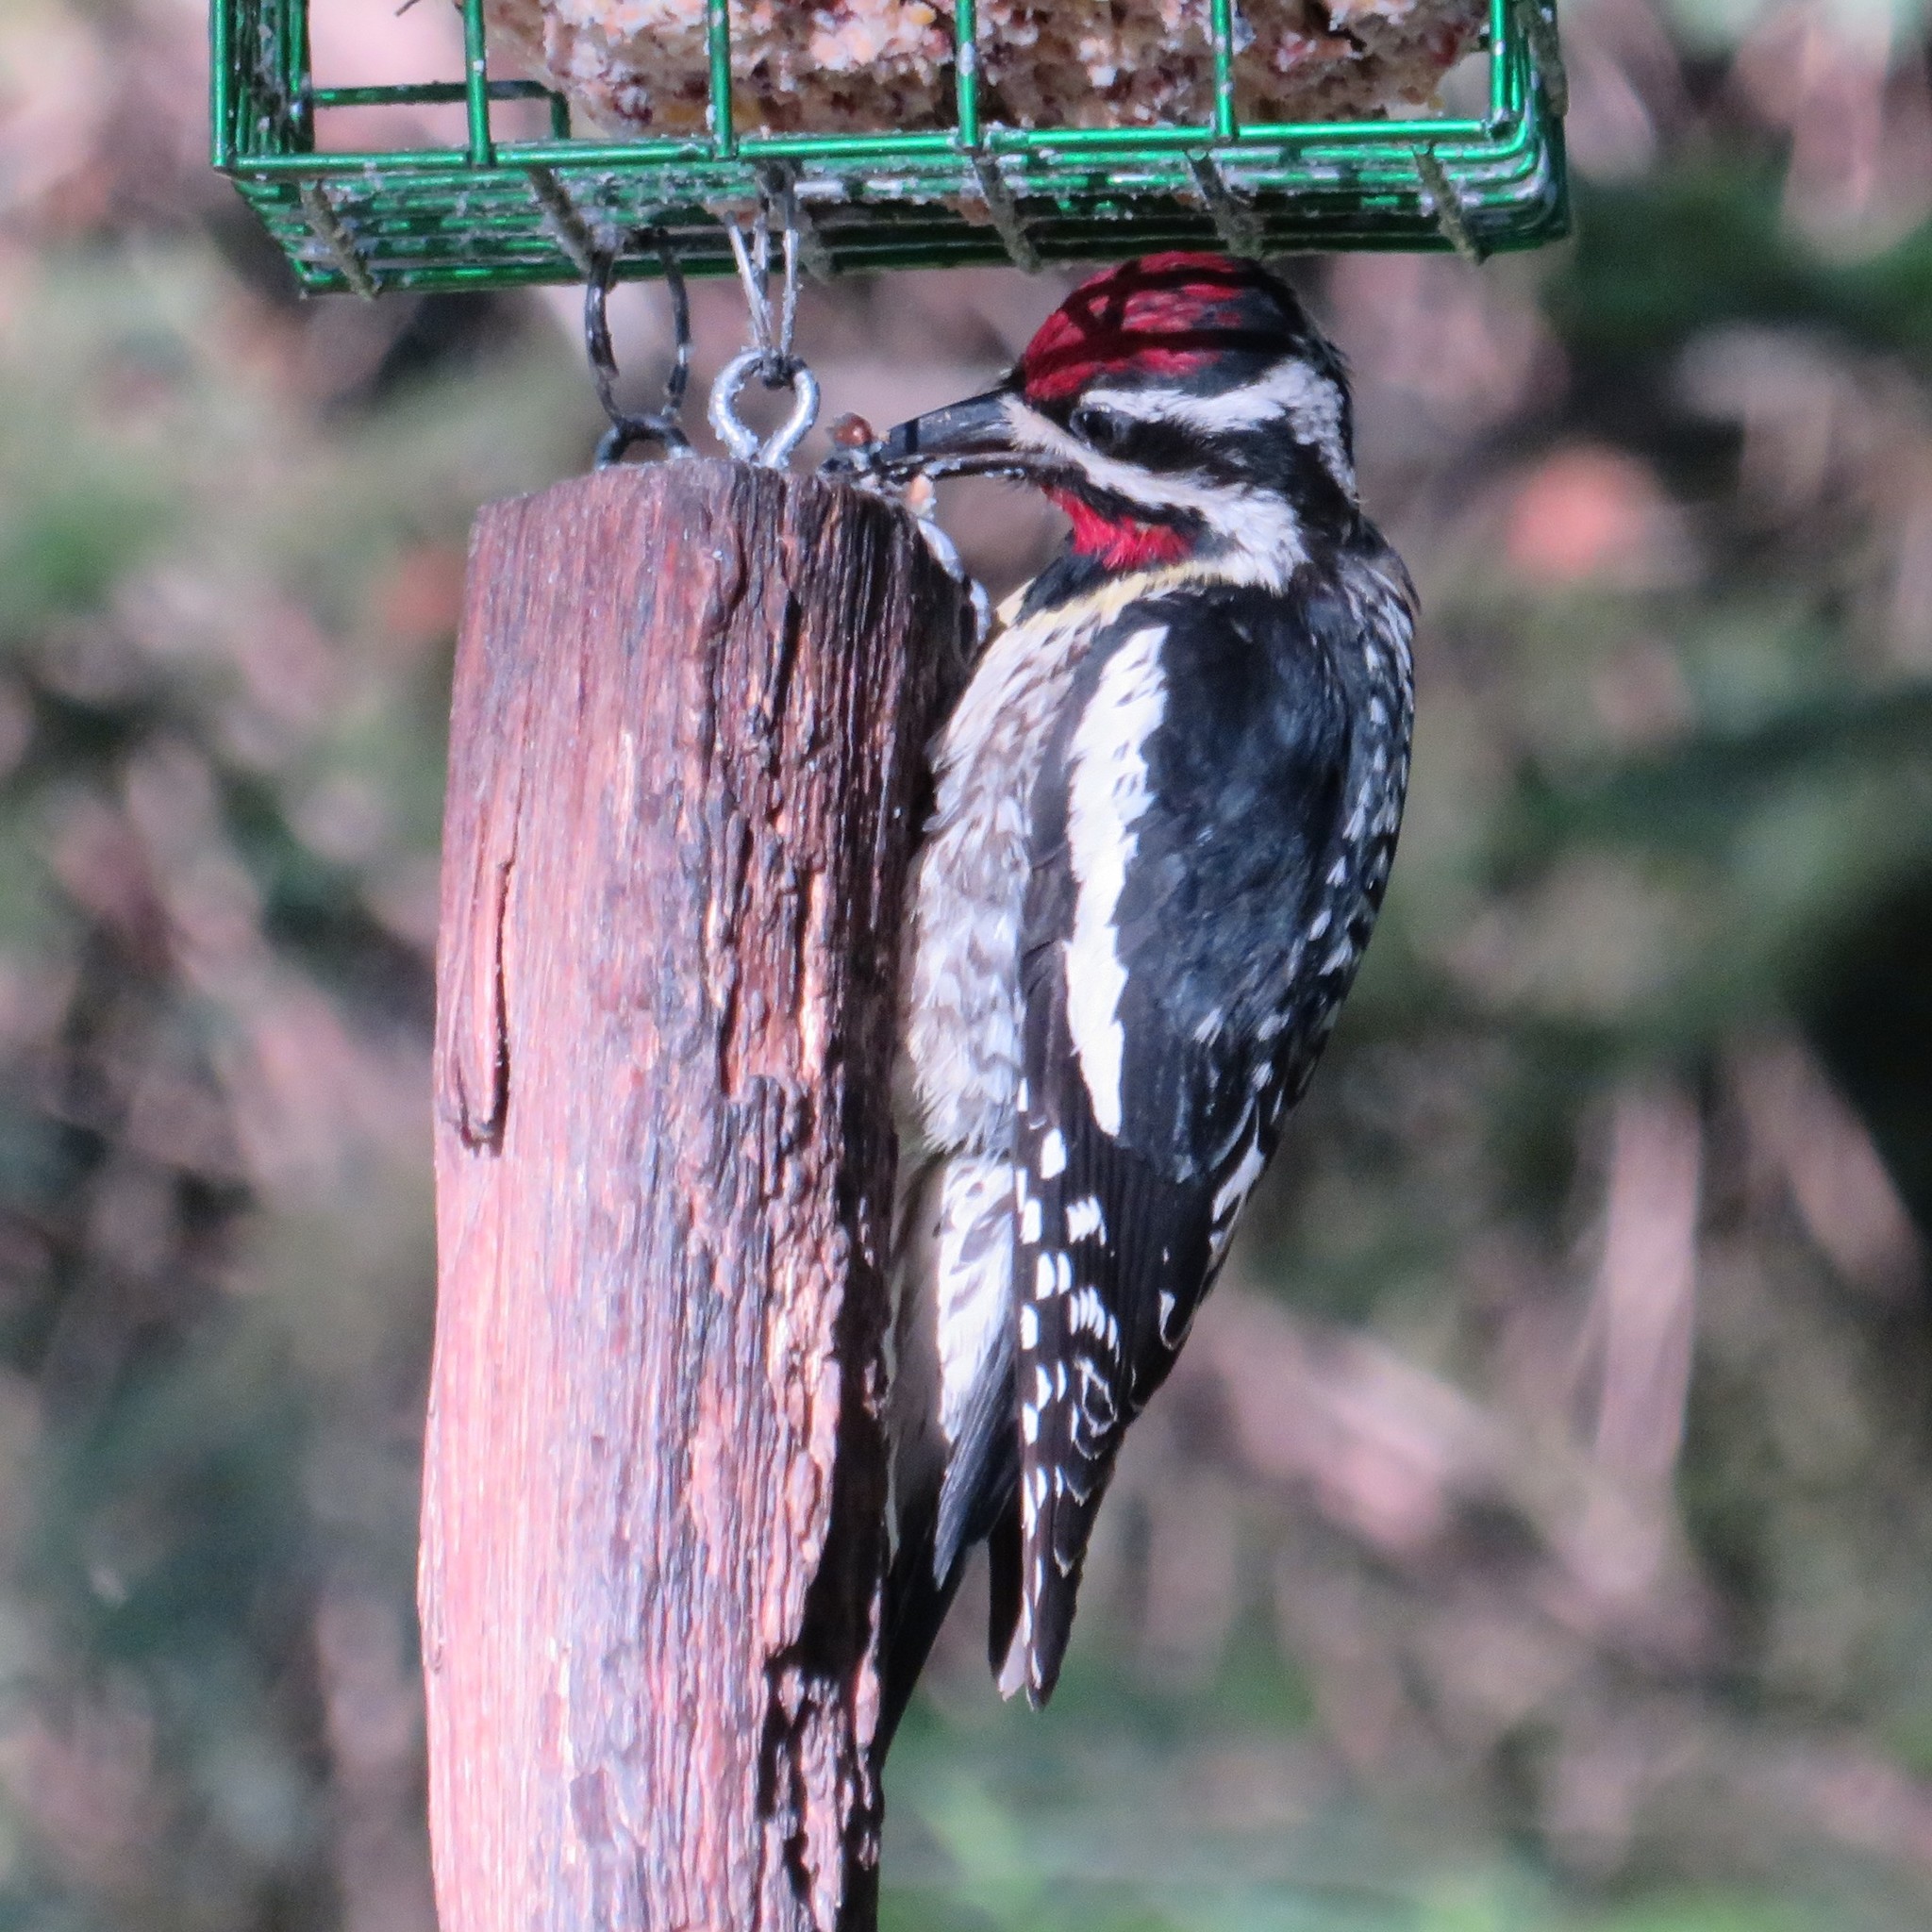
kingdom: Animalia
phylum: Chordata
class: Aves
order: Piciformes
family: Picidae
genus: Sphyrapicus
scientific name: Sphyrapicus varius
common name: Yellow-bellied sapsucker
